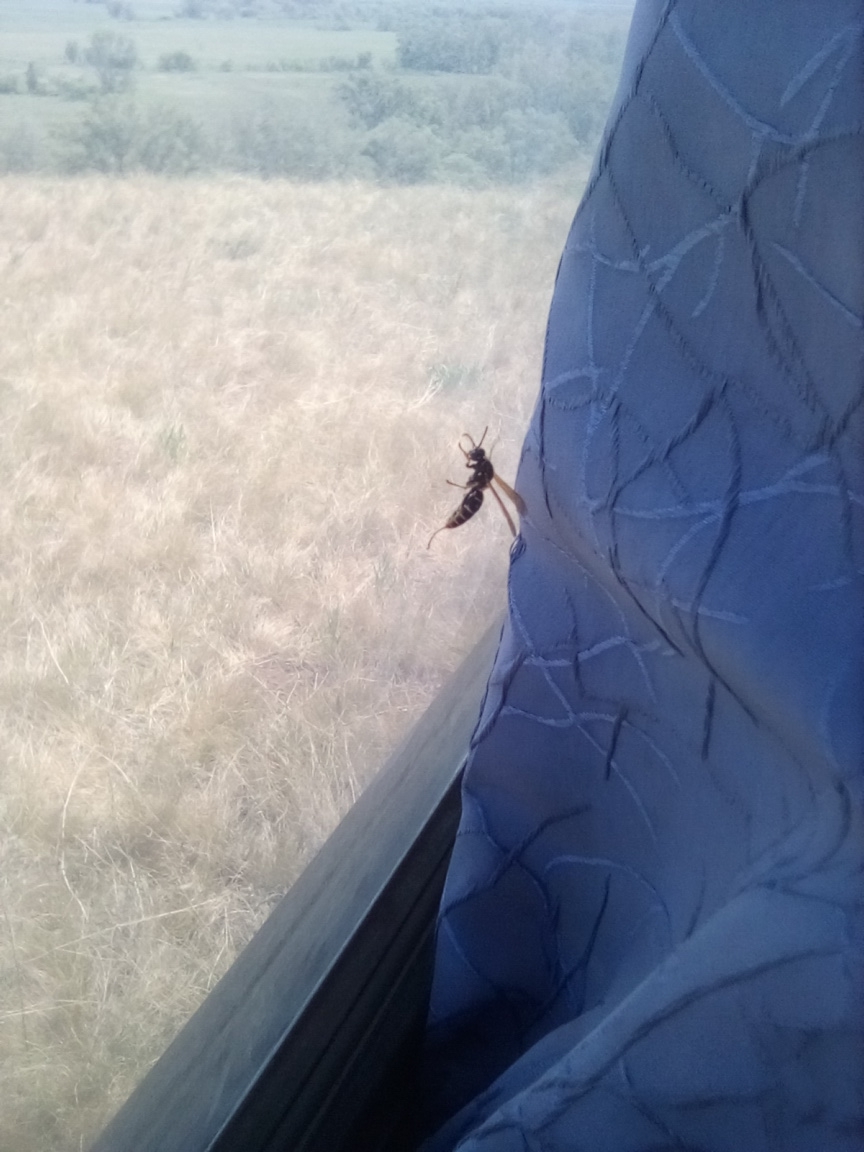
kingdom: Animalia
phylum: Arthropoda
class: Insecta
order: Hymenoptera
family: Eumenidae
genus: Polistes
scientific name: Polistes
